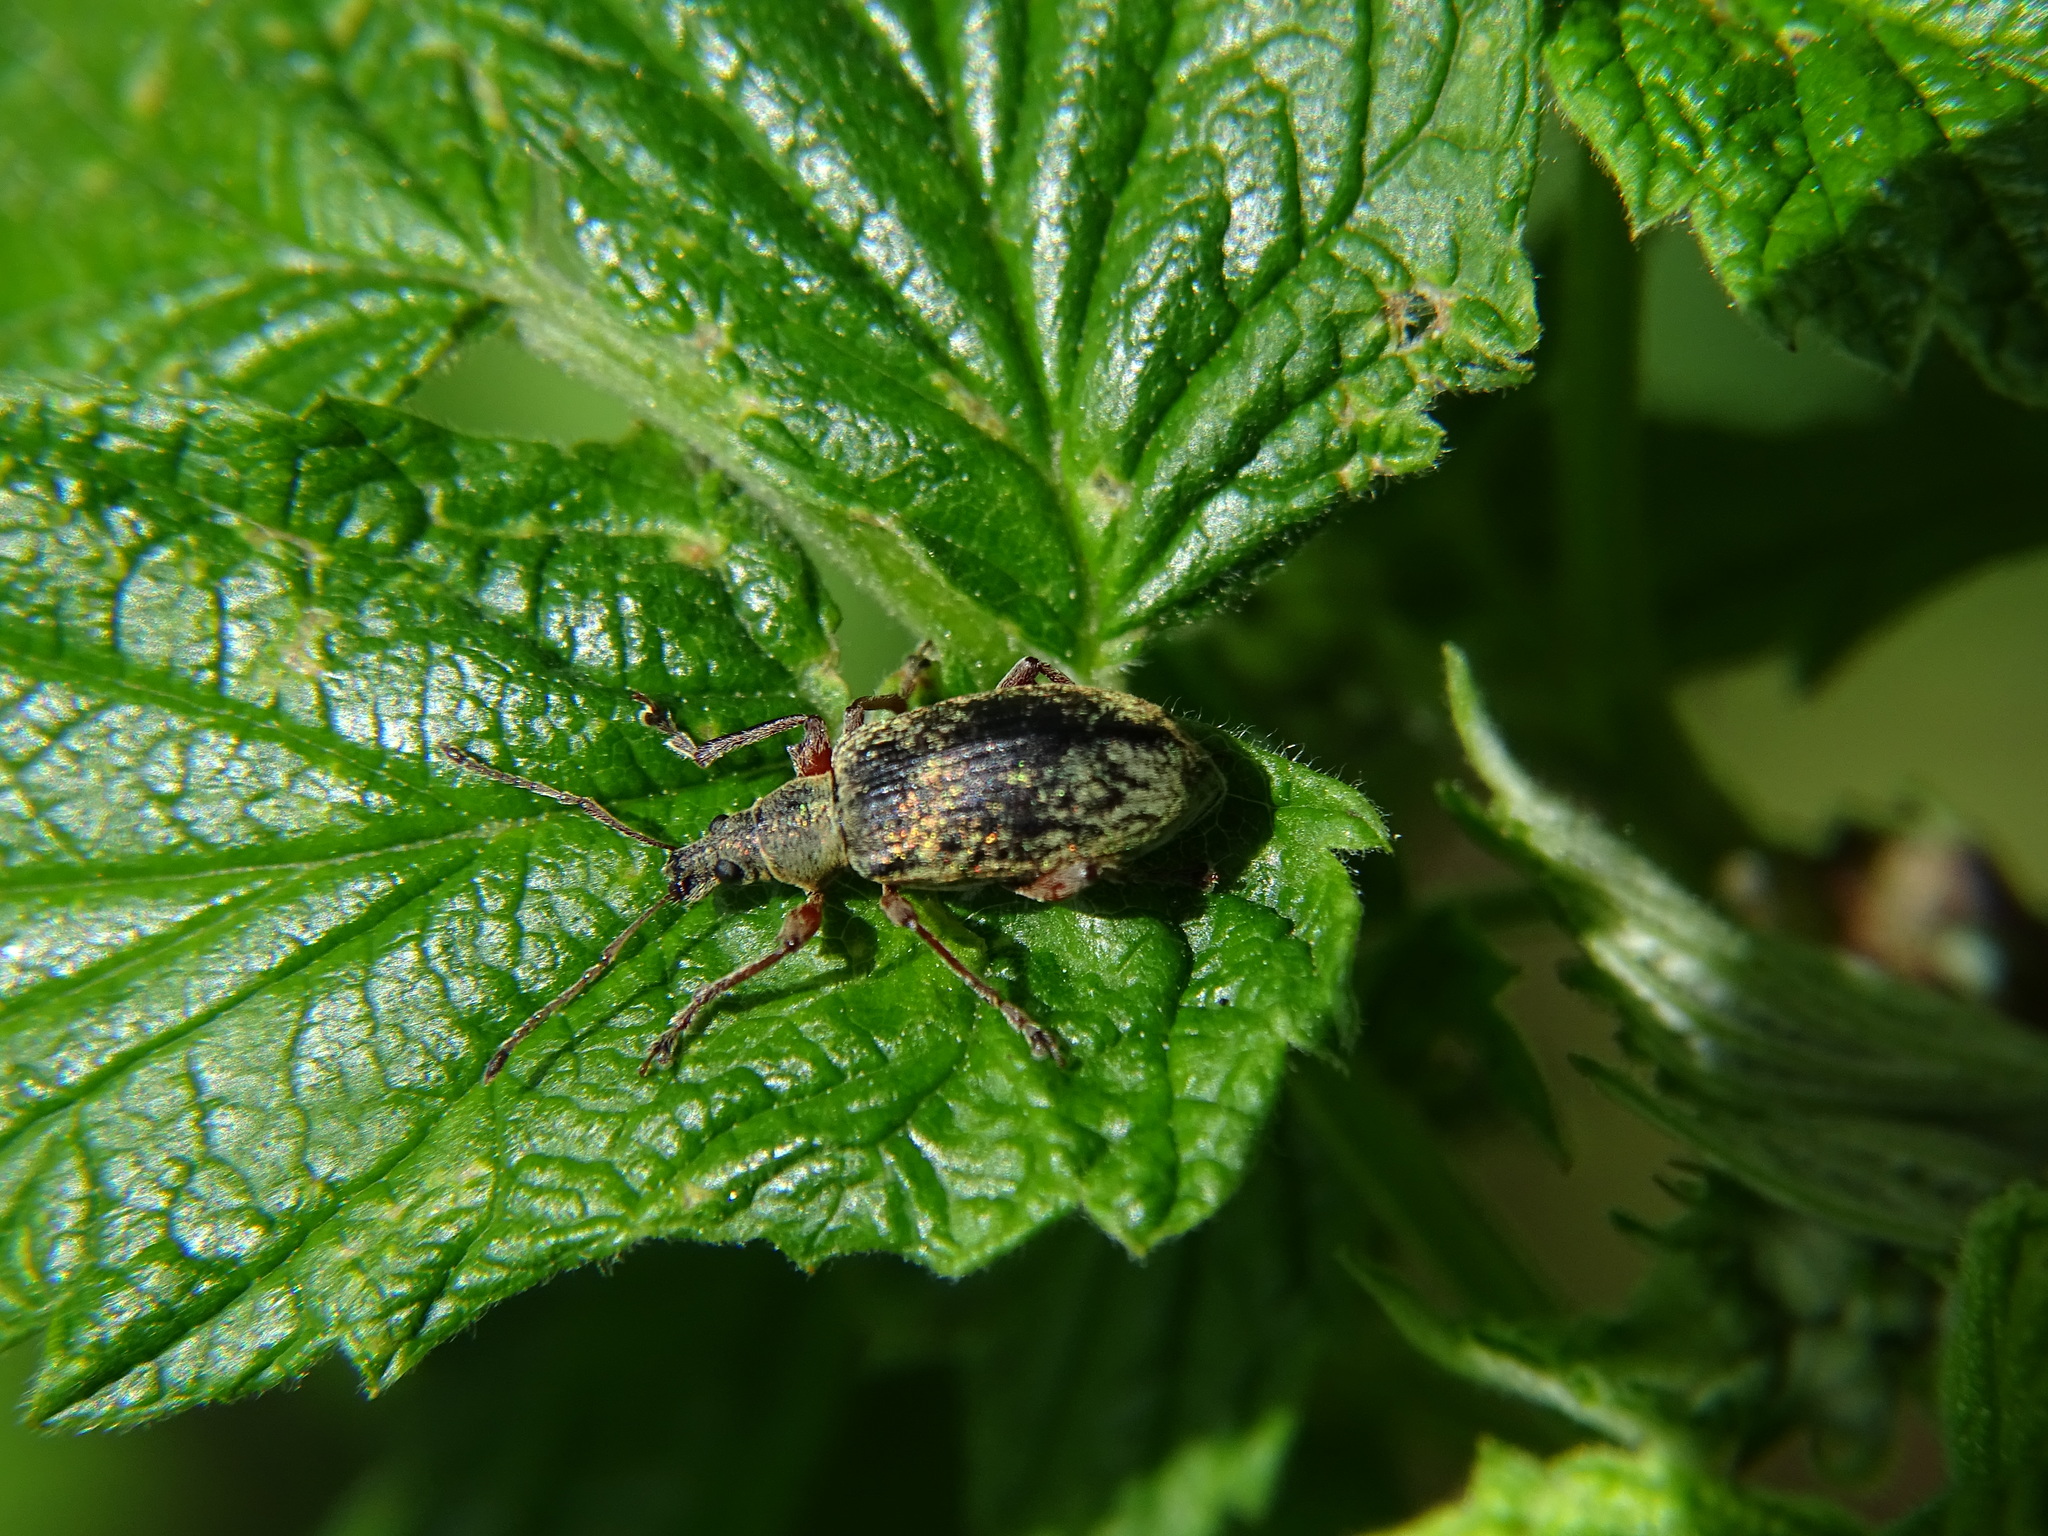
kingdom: Animalia
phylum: Arthropoda
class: Insecta
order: Coleoptera
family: Curculionidae
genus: Phyllobius
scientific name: Phyllobius glaucus
